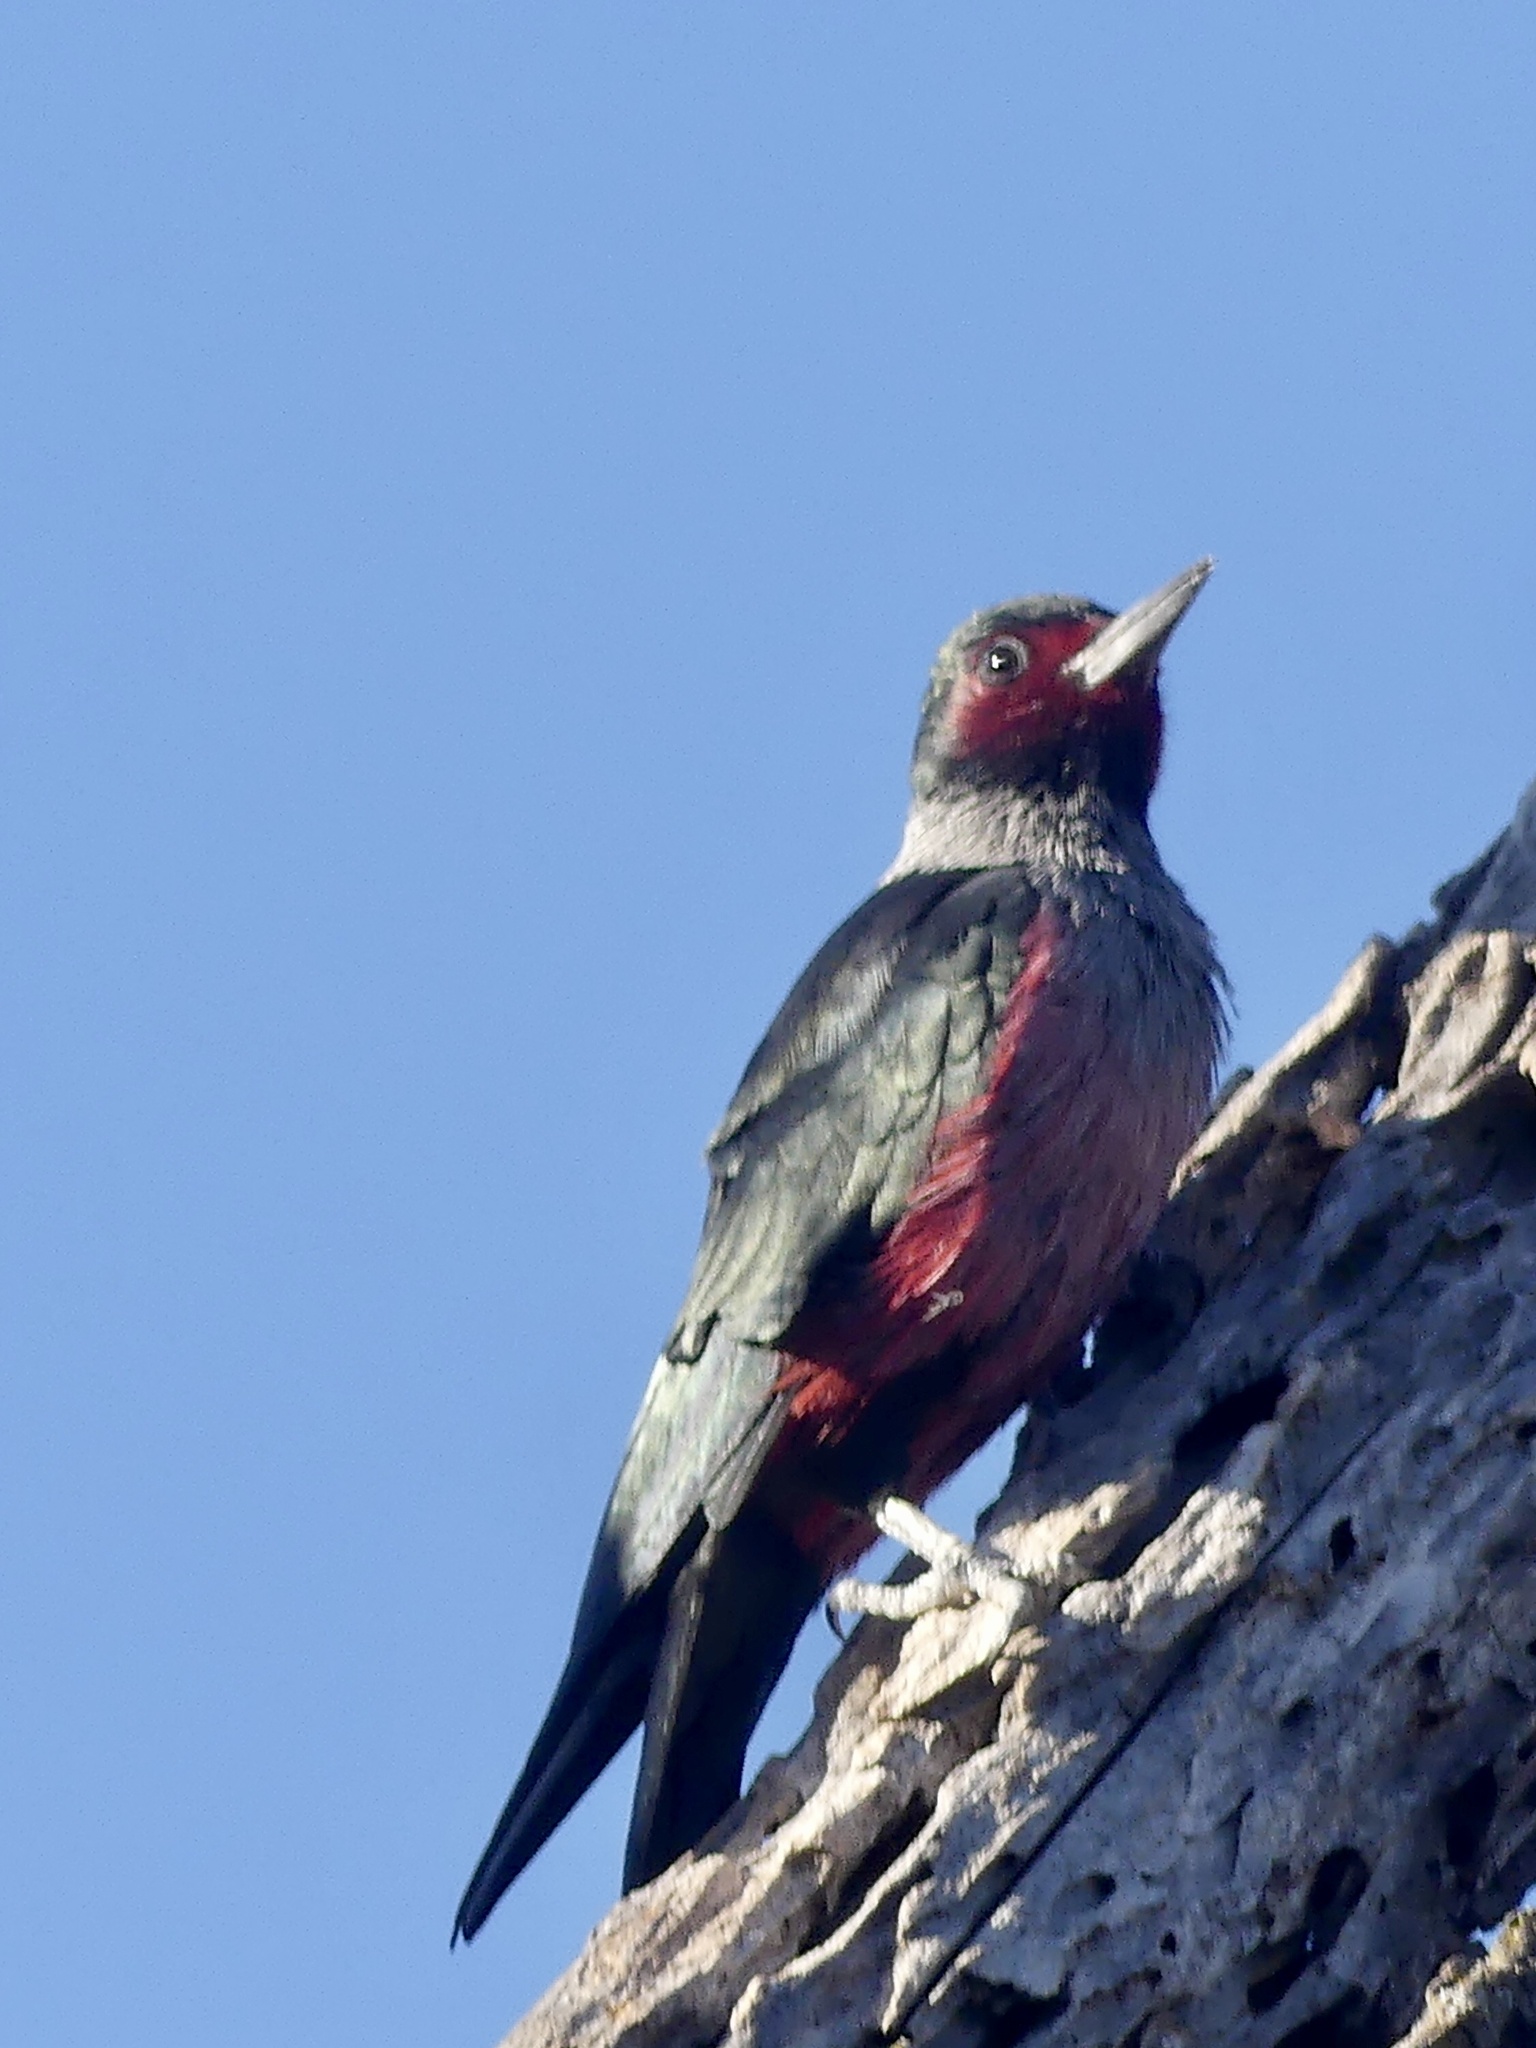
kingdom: Animalia
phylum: Chordata
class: Aves
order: Piciformes
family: Picidae
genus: Melanerpes
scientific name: Melanerpes lewis
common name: Lewis's woodpecker
